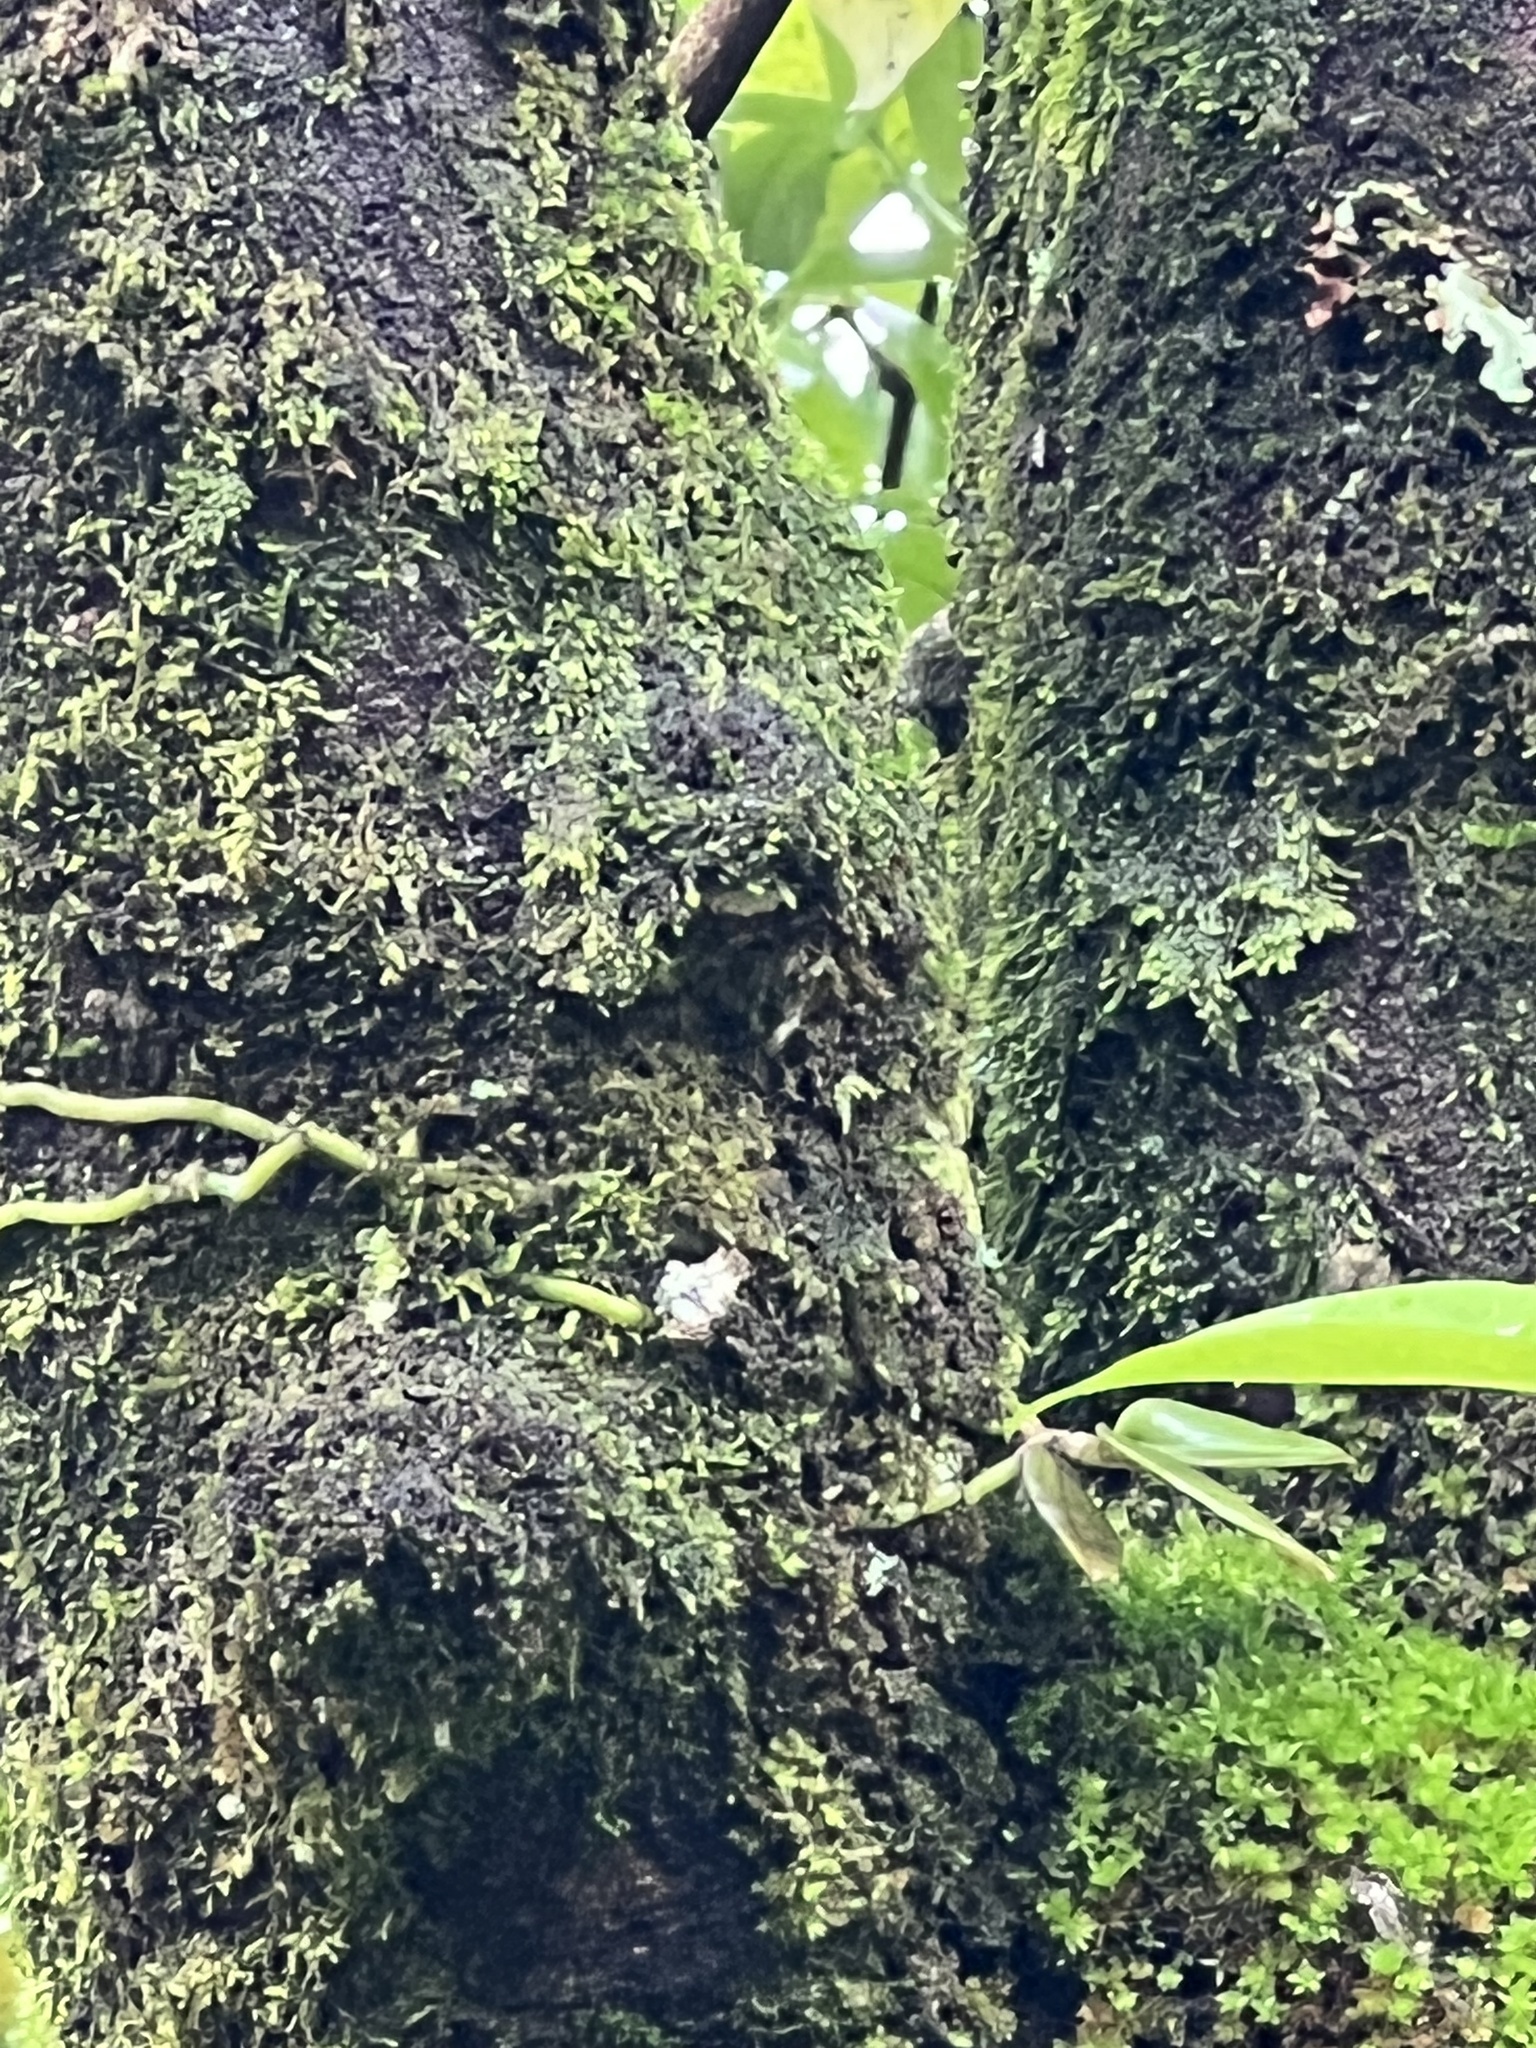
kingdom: Plantae
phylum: Tracheophyta
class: Liliopsida
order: Asparagales
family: Orchidaceae
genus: Drymoanthus
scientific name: Drymoanthus adversus
